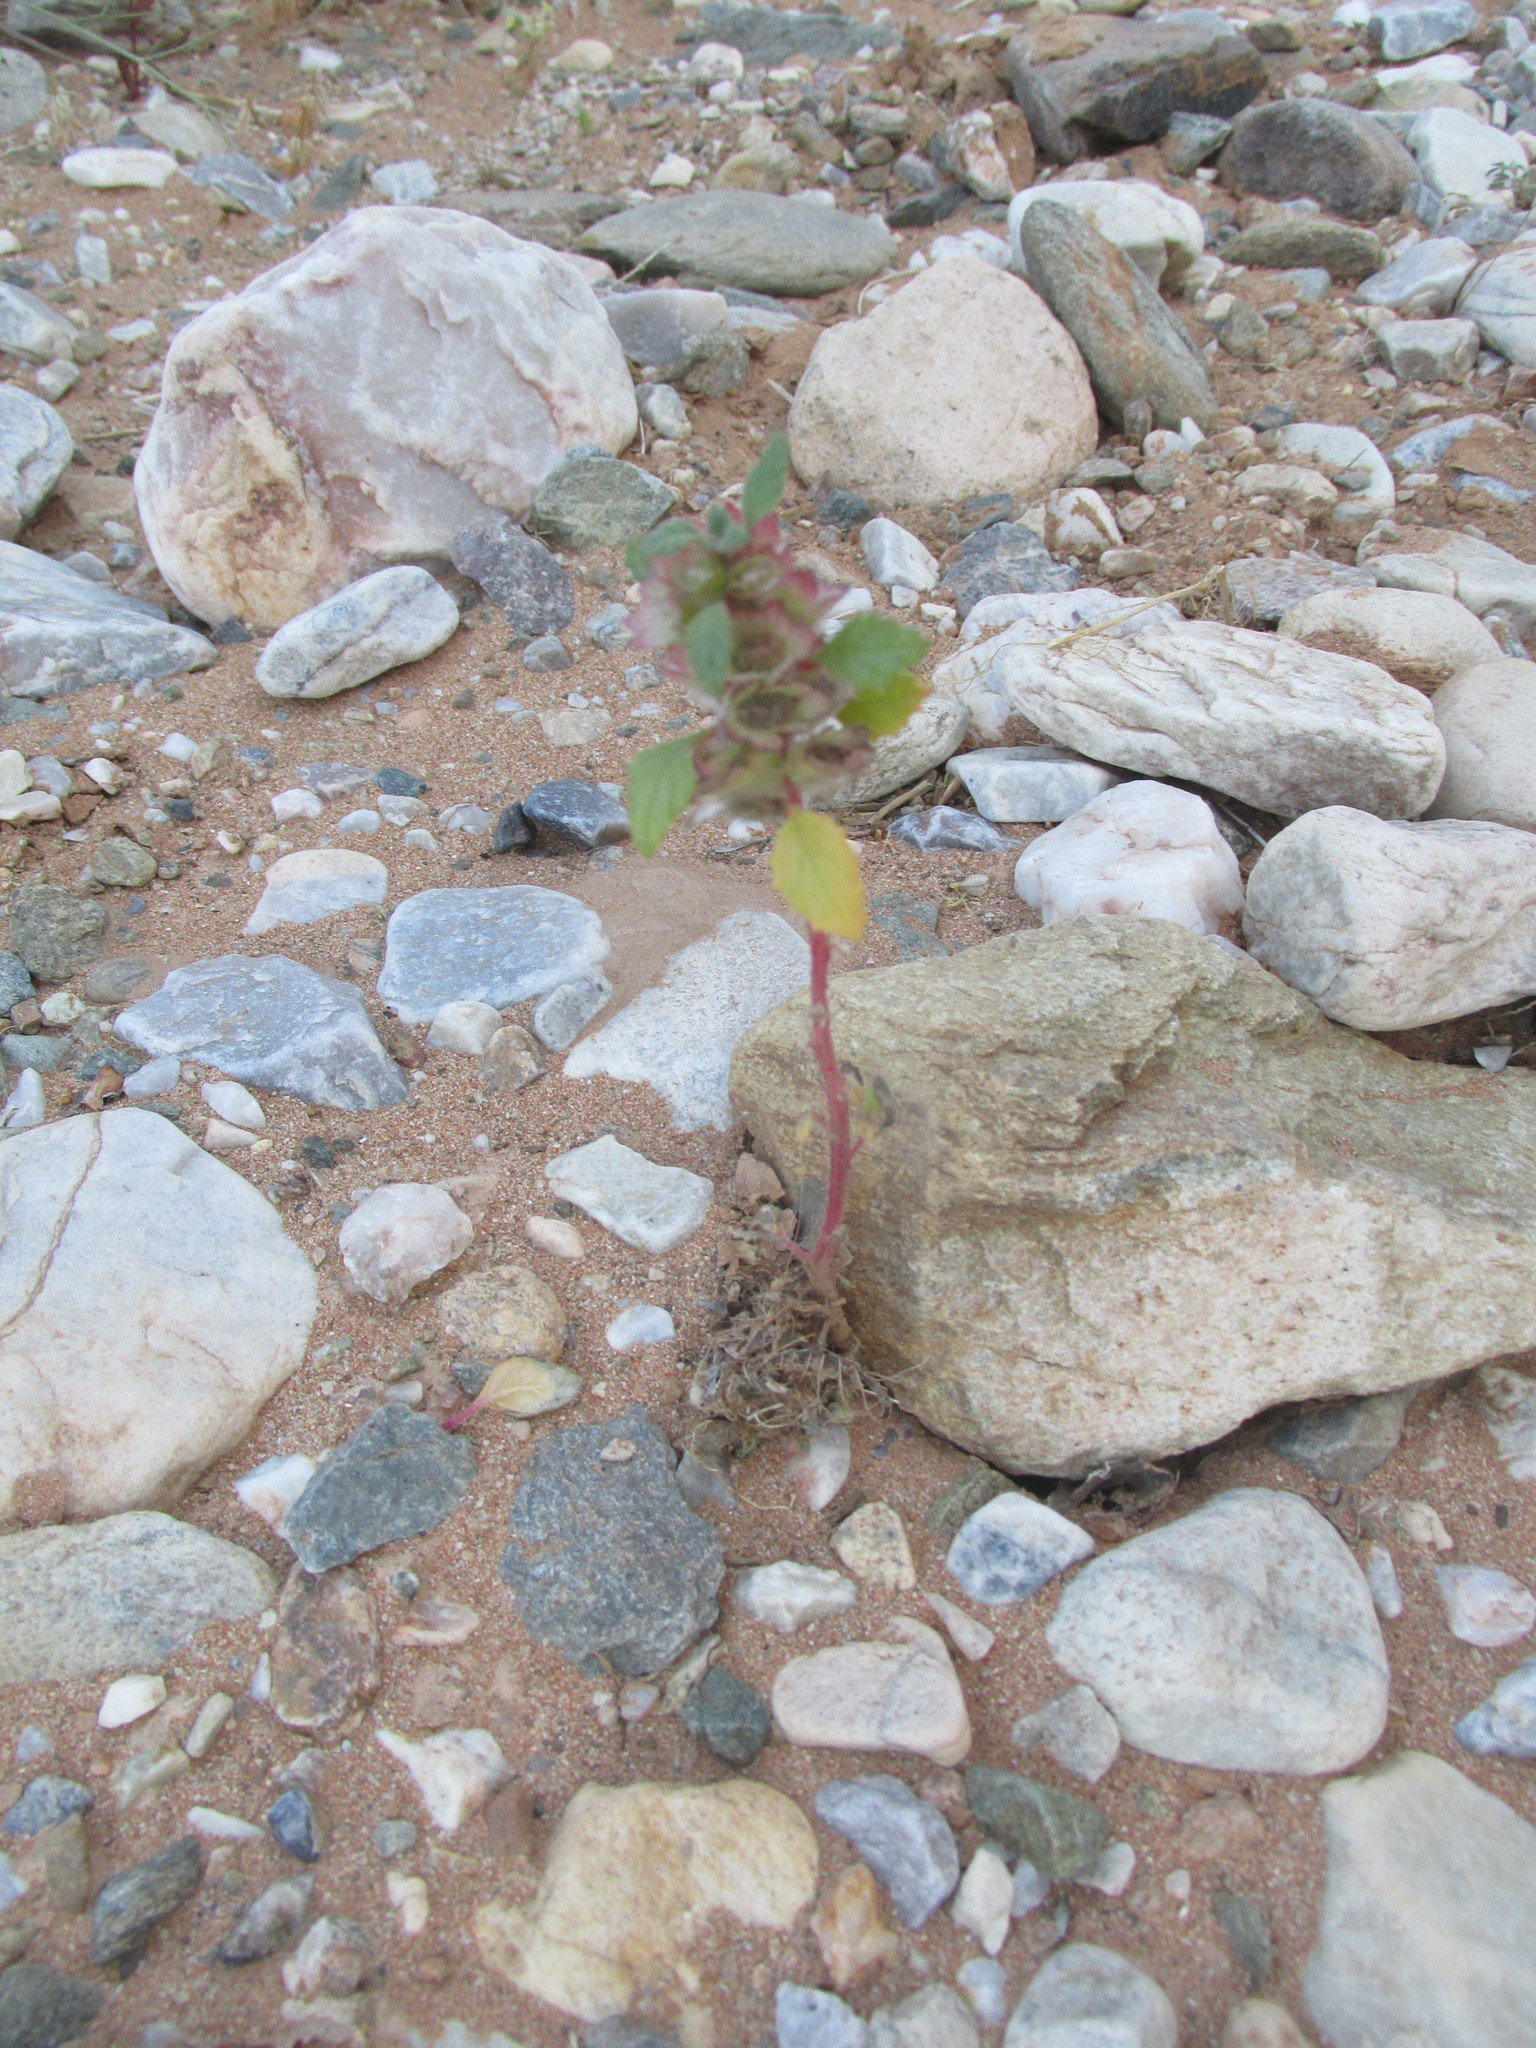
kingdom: Plantae
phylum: Tracheophyta
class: Magnoliopsida
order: Rosales
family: Urticaceae
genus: Forsskaolea
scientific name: Forsskaolea candida
